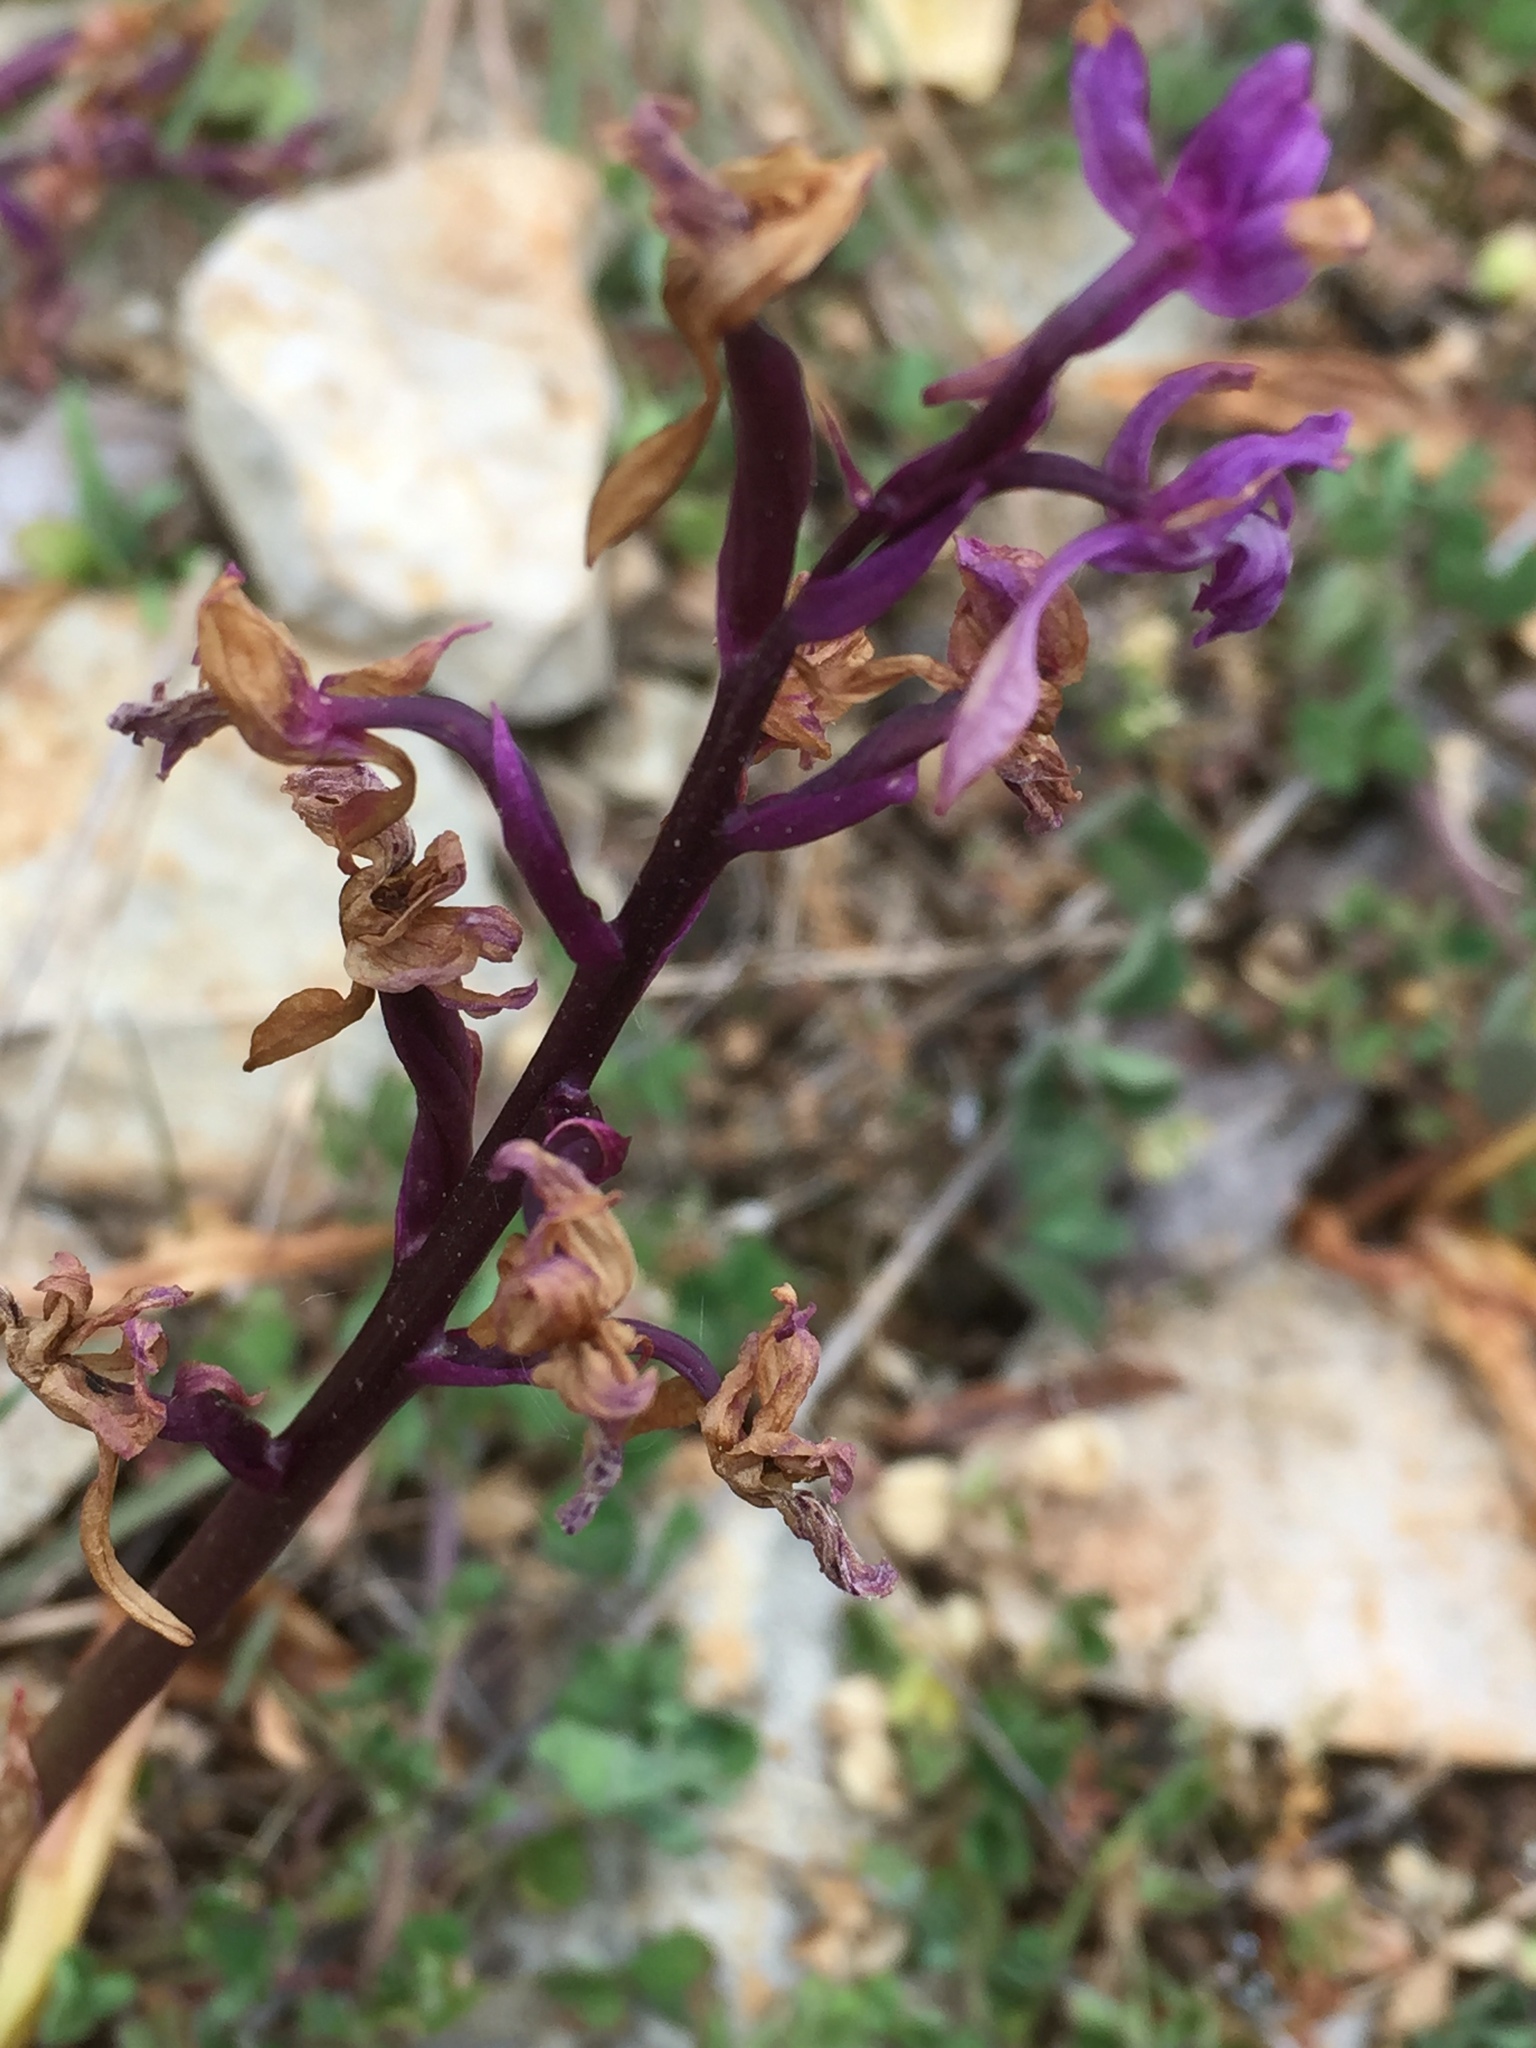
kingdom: Plantae
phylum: Tracheophyta
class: Liliopsida
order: Asparagales
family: Orchidaceae
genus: Orchis
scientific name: Orchis mascula
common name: Early-purple orchid
